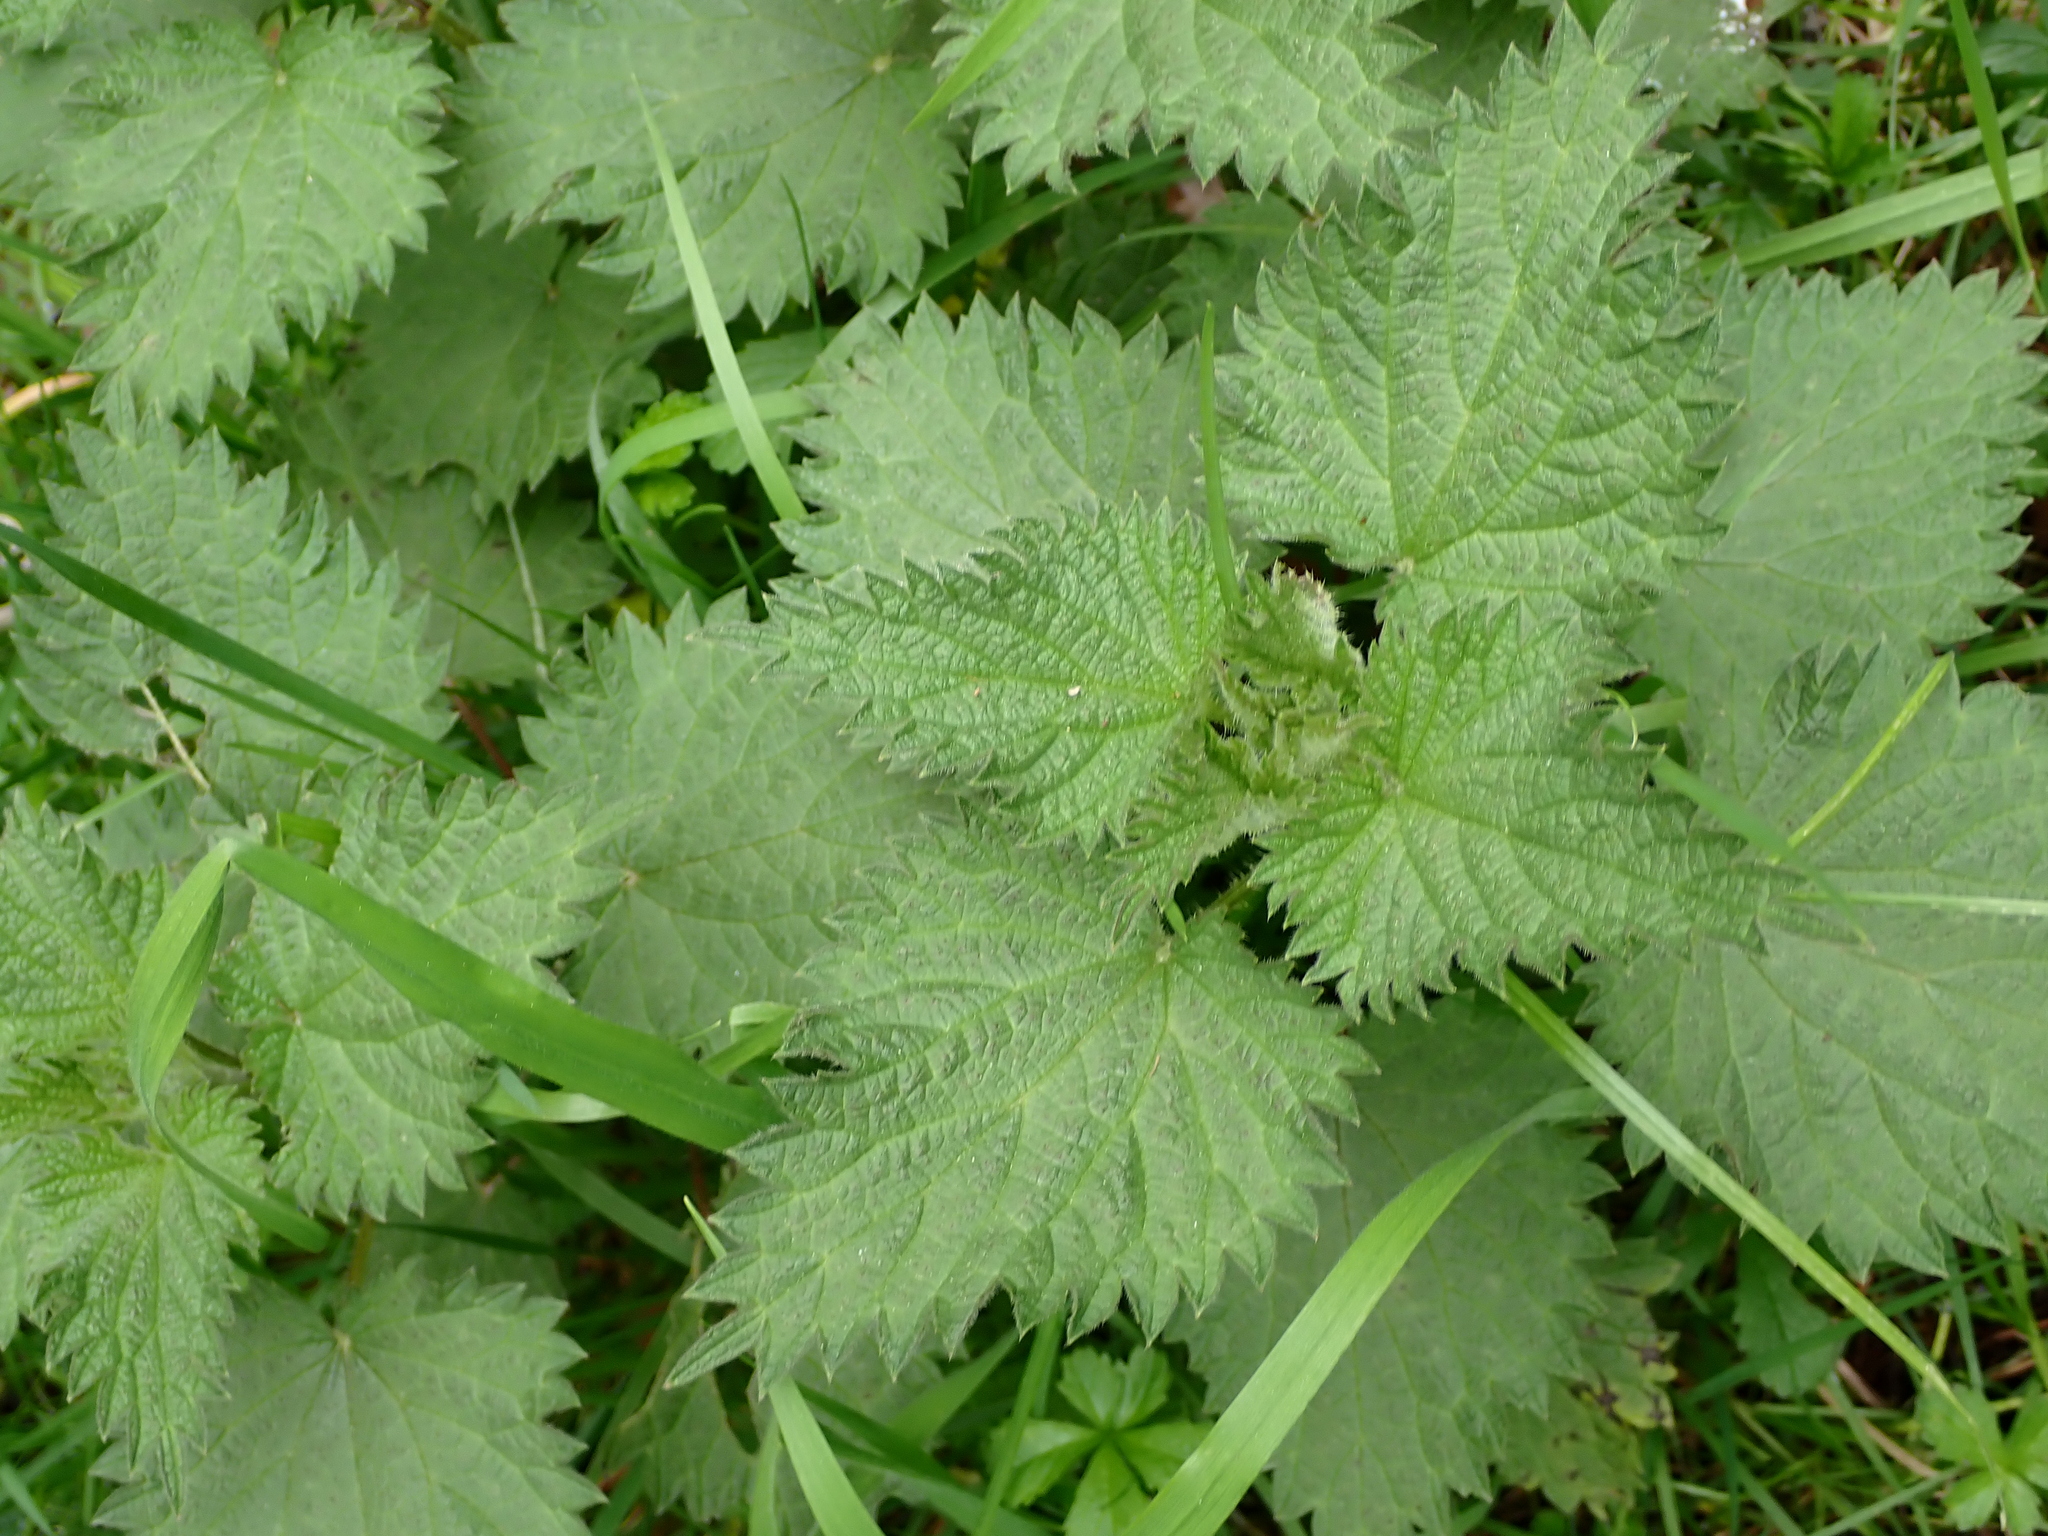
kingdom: Plantae
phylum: Tracheophyta
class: Magnoliopsida
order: Rosales
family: Urticaceae
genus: Urtica
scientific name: Urtica dioica
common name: Common nettle
